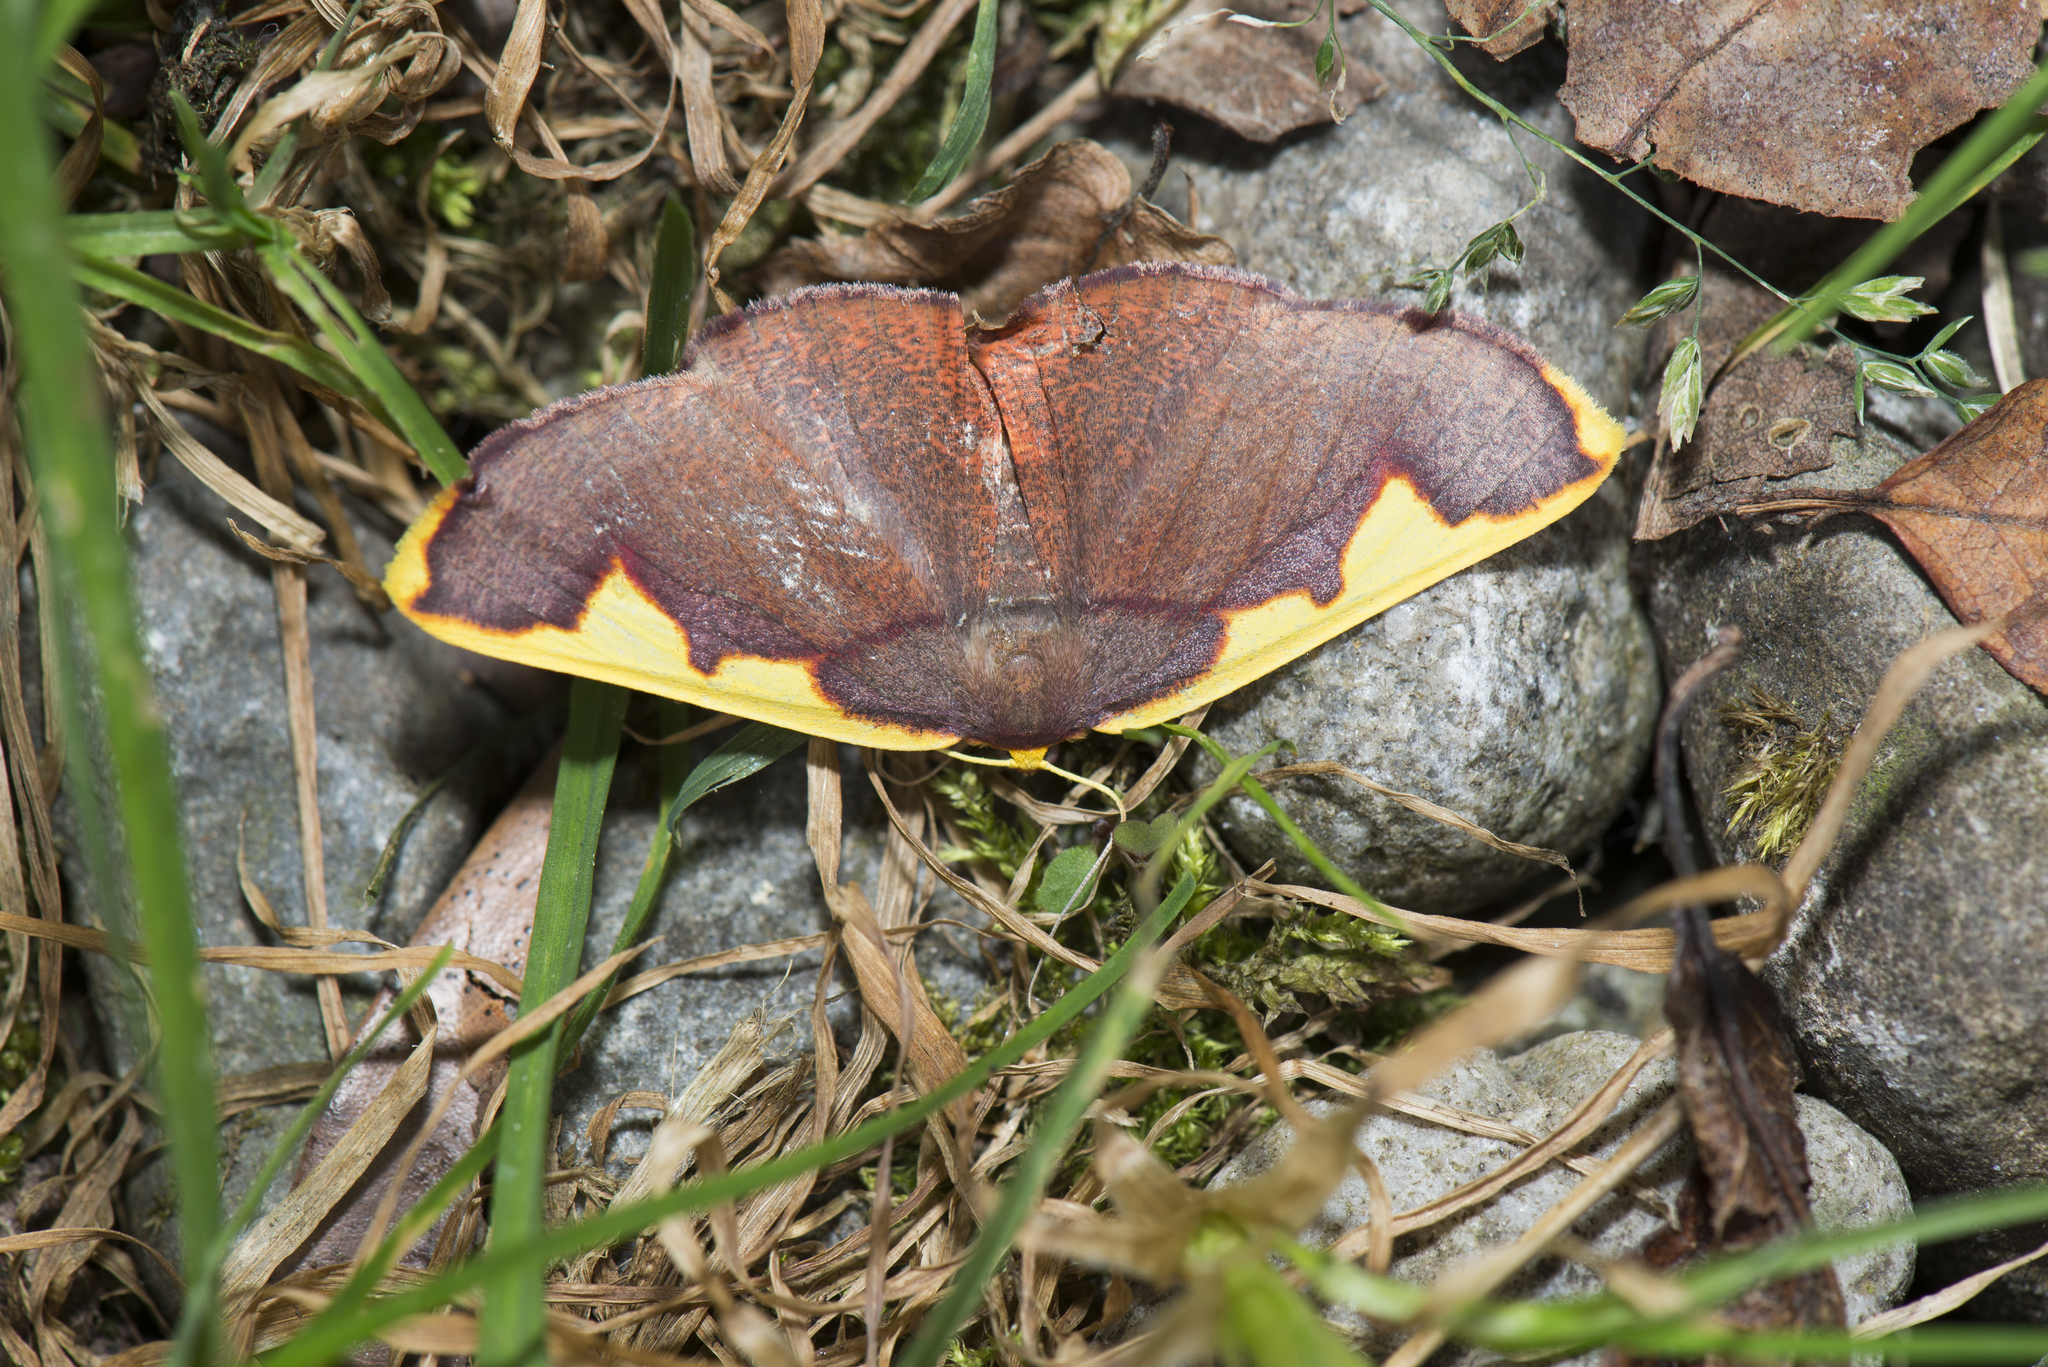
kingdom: Animalia
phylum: Arthropoda
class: Insecta
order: Lepidoptera
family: Geometridae
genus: Nothomiza
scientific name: Nothomiza flavicosta
